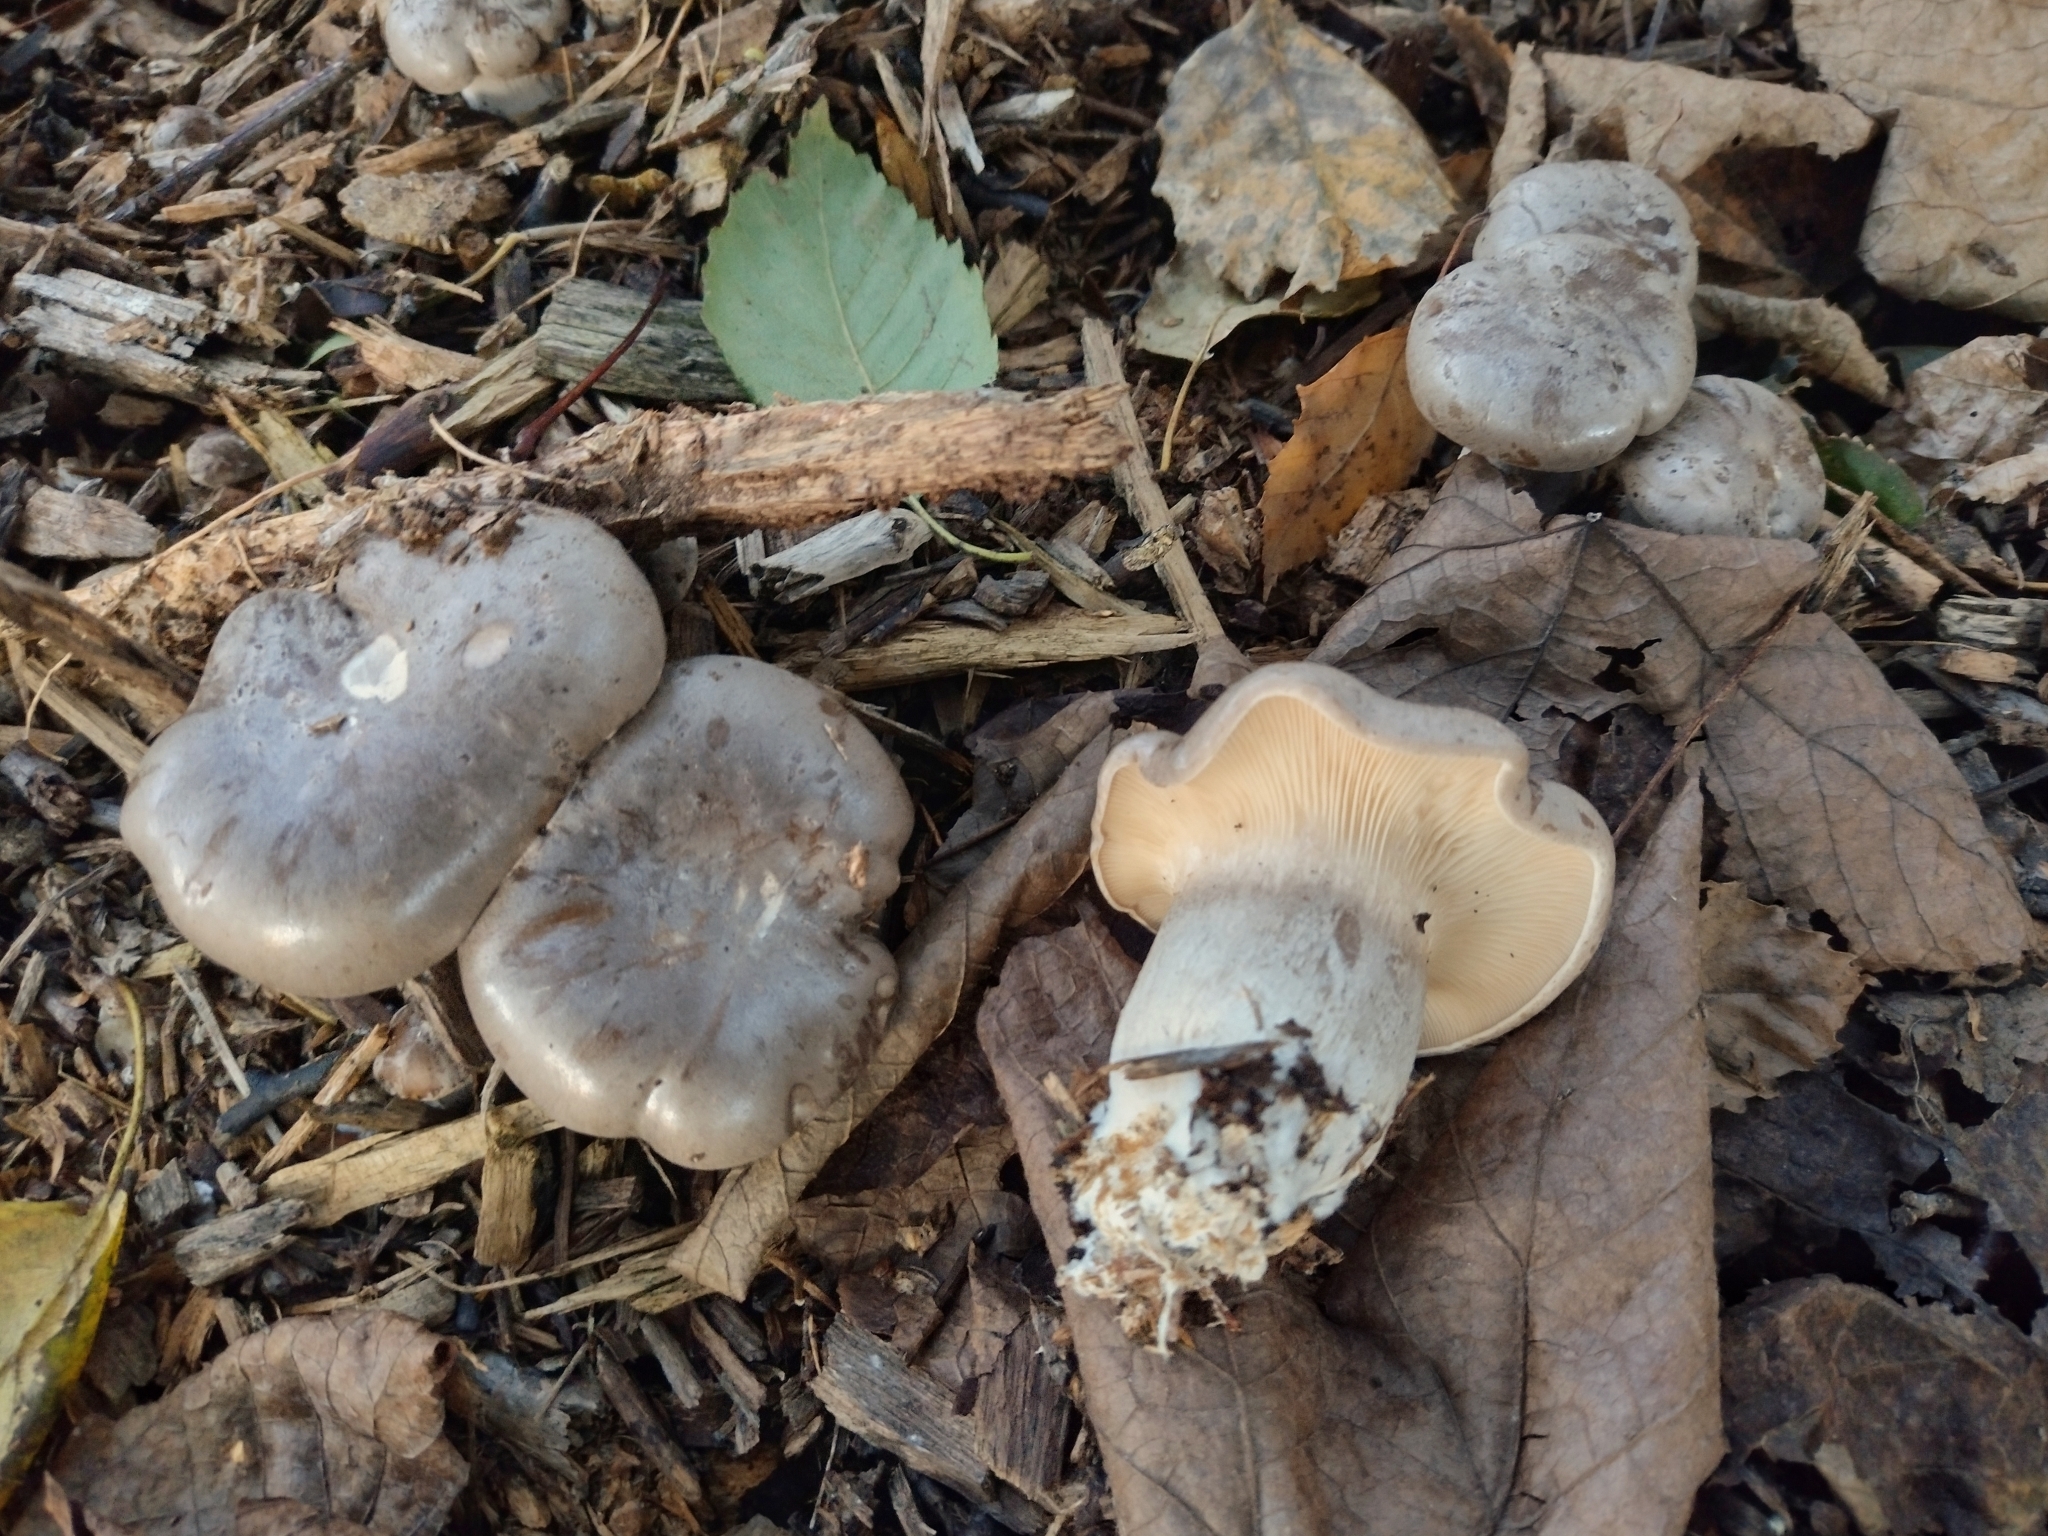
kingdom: Fungi
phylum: Basidiomycota
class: Agaricomycetes
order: Agaricales
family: Tricholomataceae
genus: Clitocybe
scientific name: Clitocybe nebularis
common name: Clouded agaric
